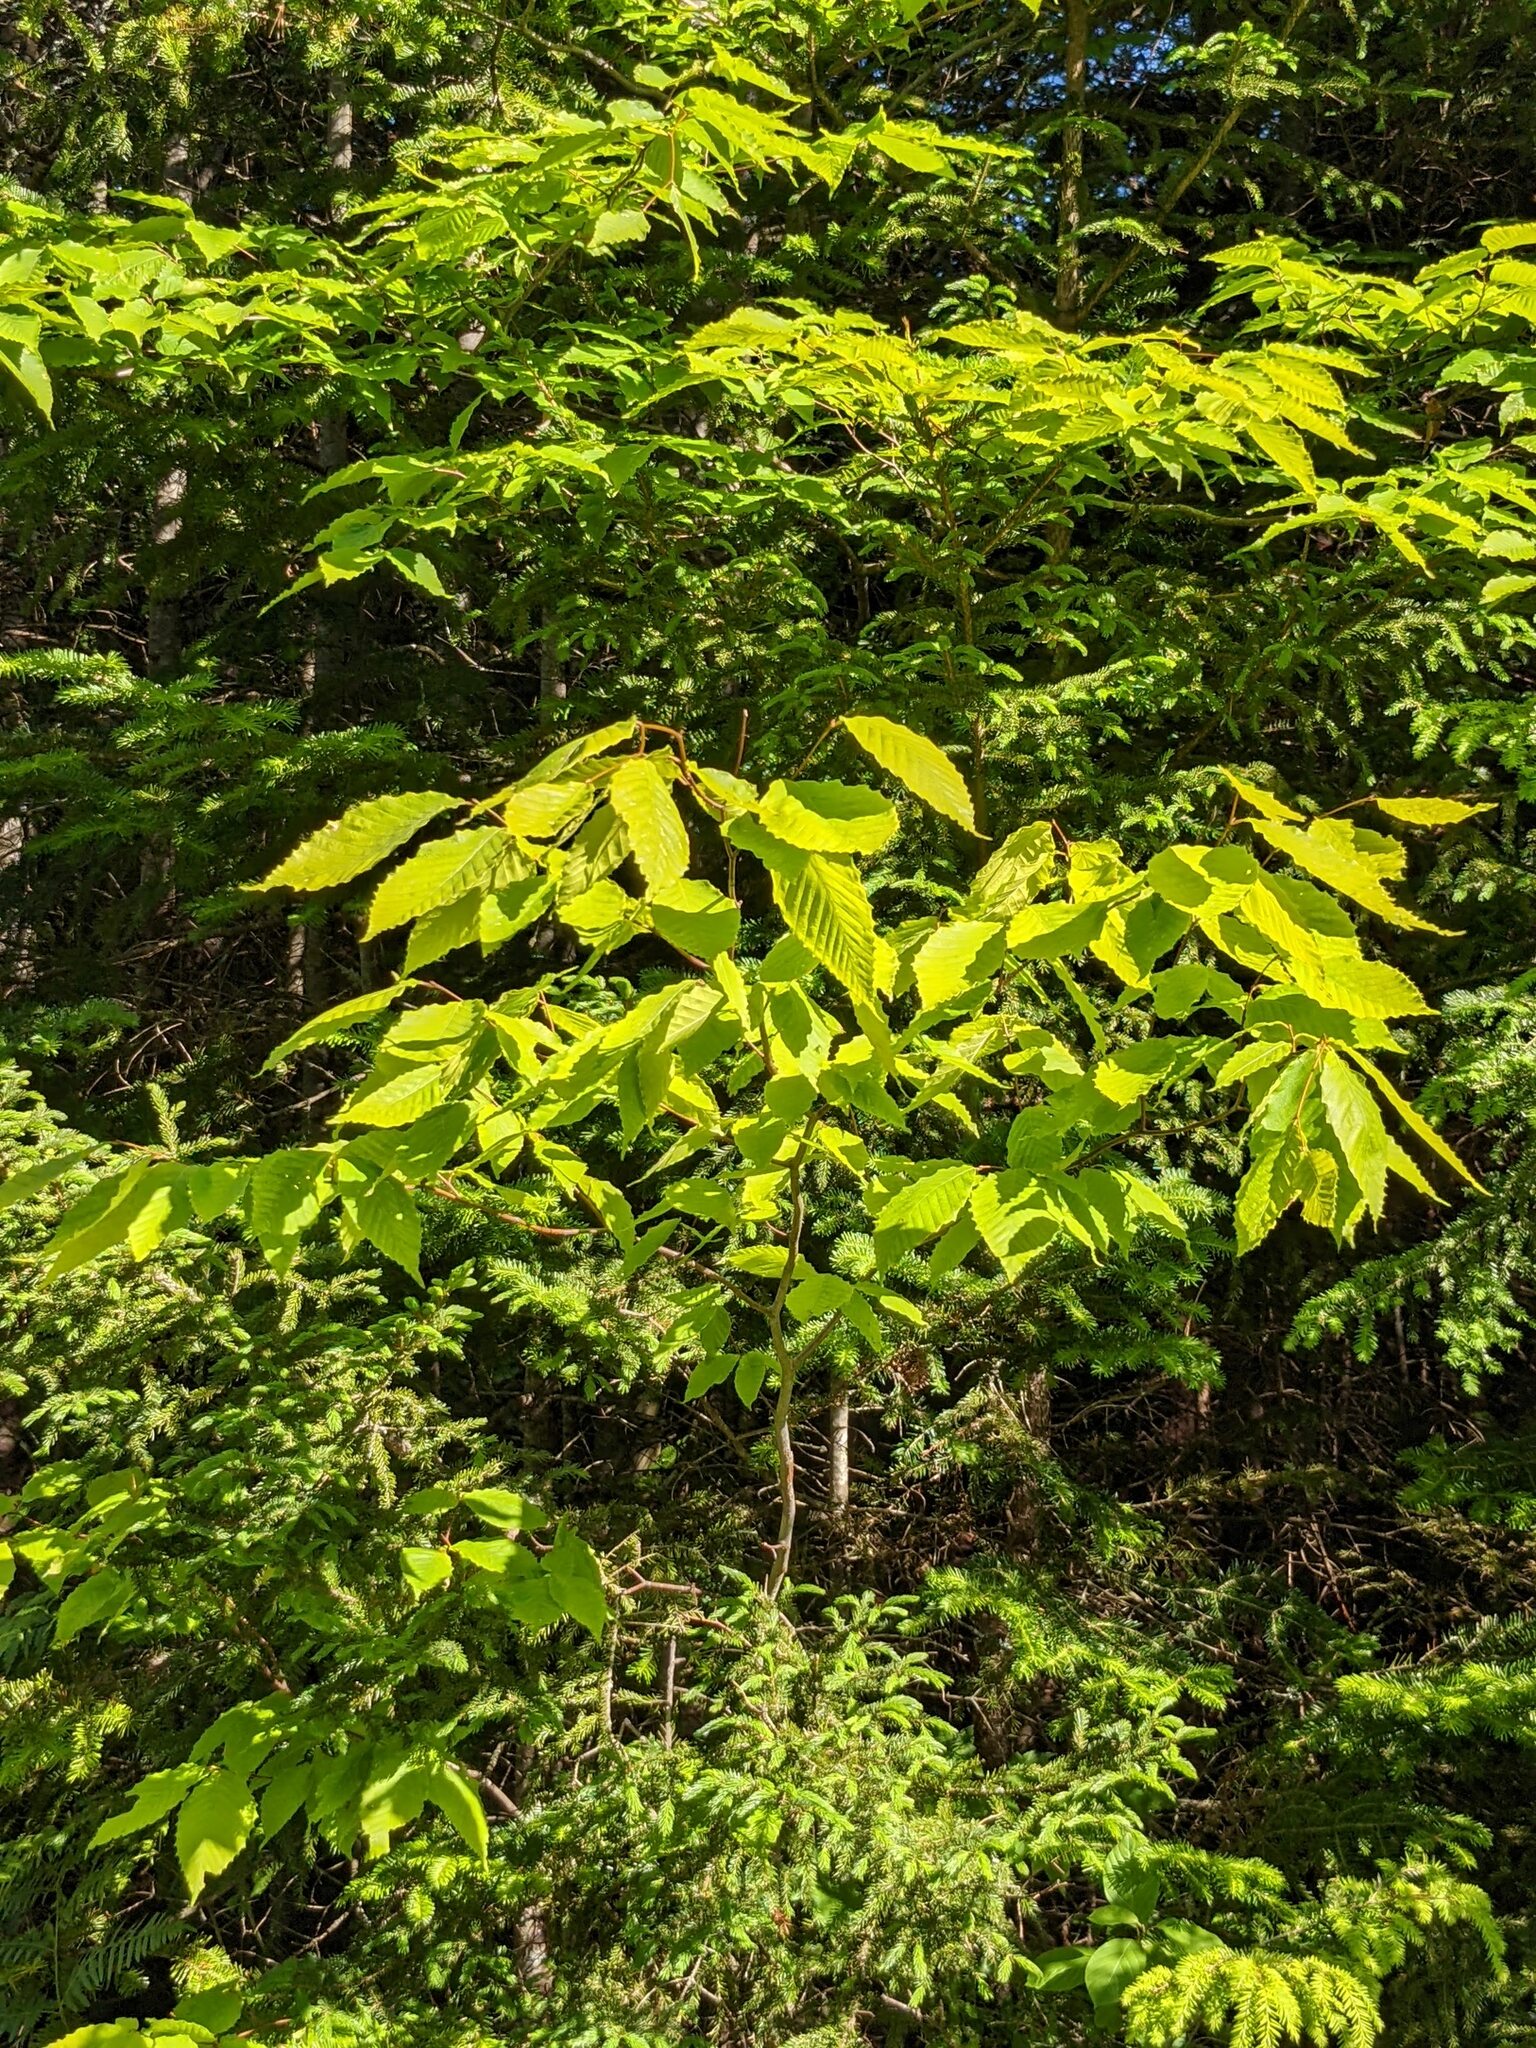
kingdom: Plantae
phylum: Tracheophyta
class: Magnoliopsida
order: Fagales
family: Fagaceae
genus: Fagus
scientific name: Fagus grandifolia
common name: American beech
